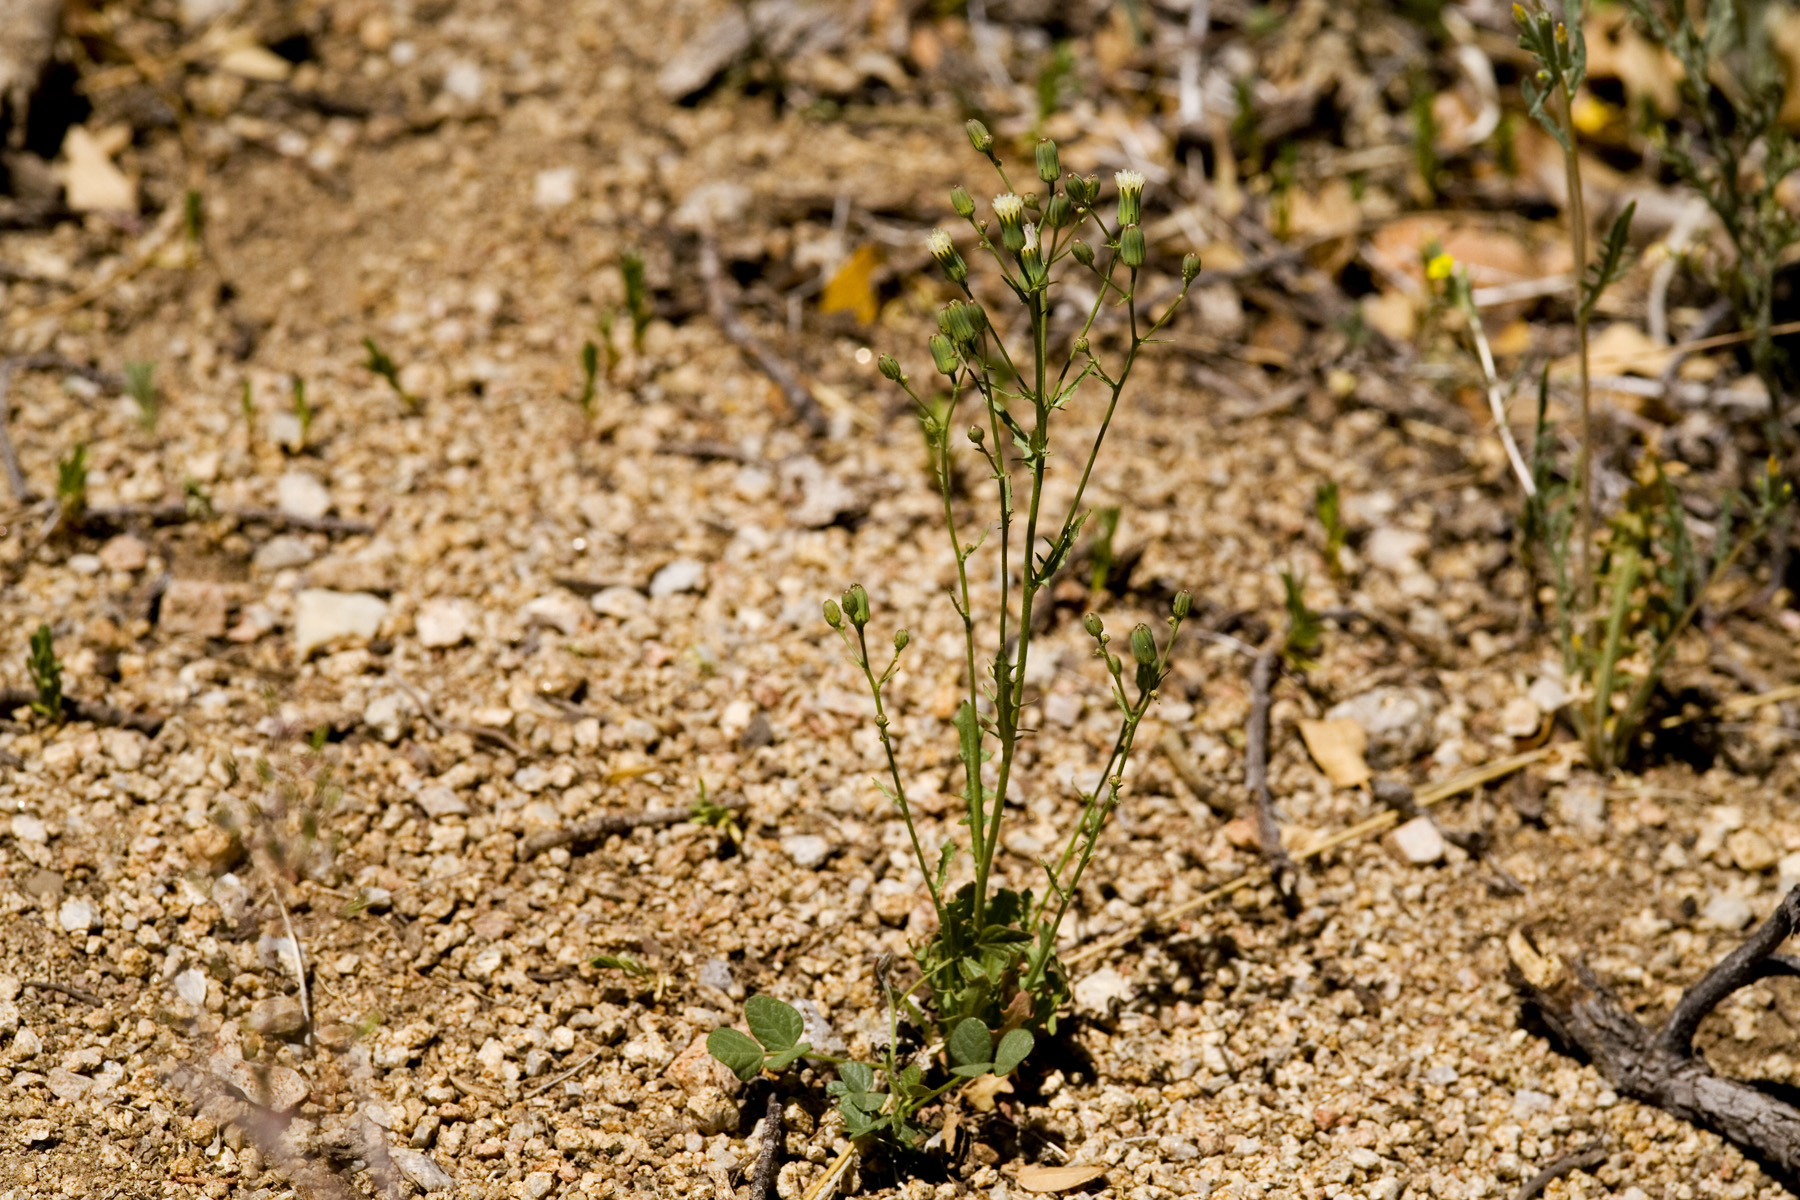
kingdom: Plantae
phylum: Tracheophyta
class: Magnoliopsida
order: Asterales
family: Asteraceae
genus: Malacothrix
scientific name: Malacothrix stebbinsii
